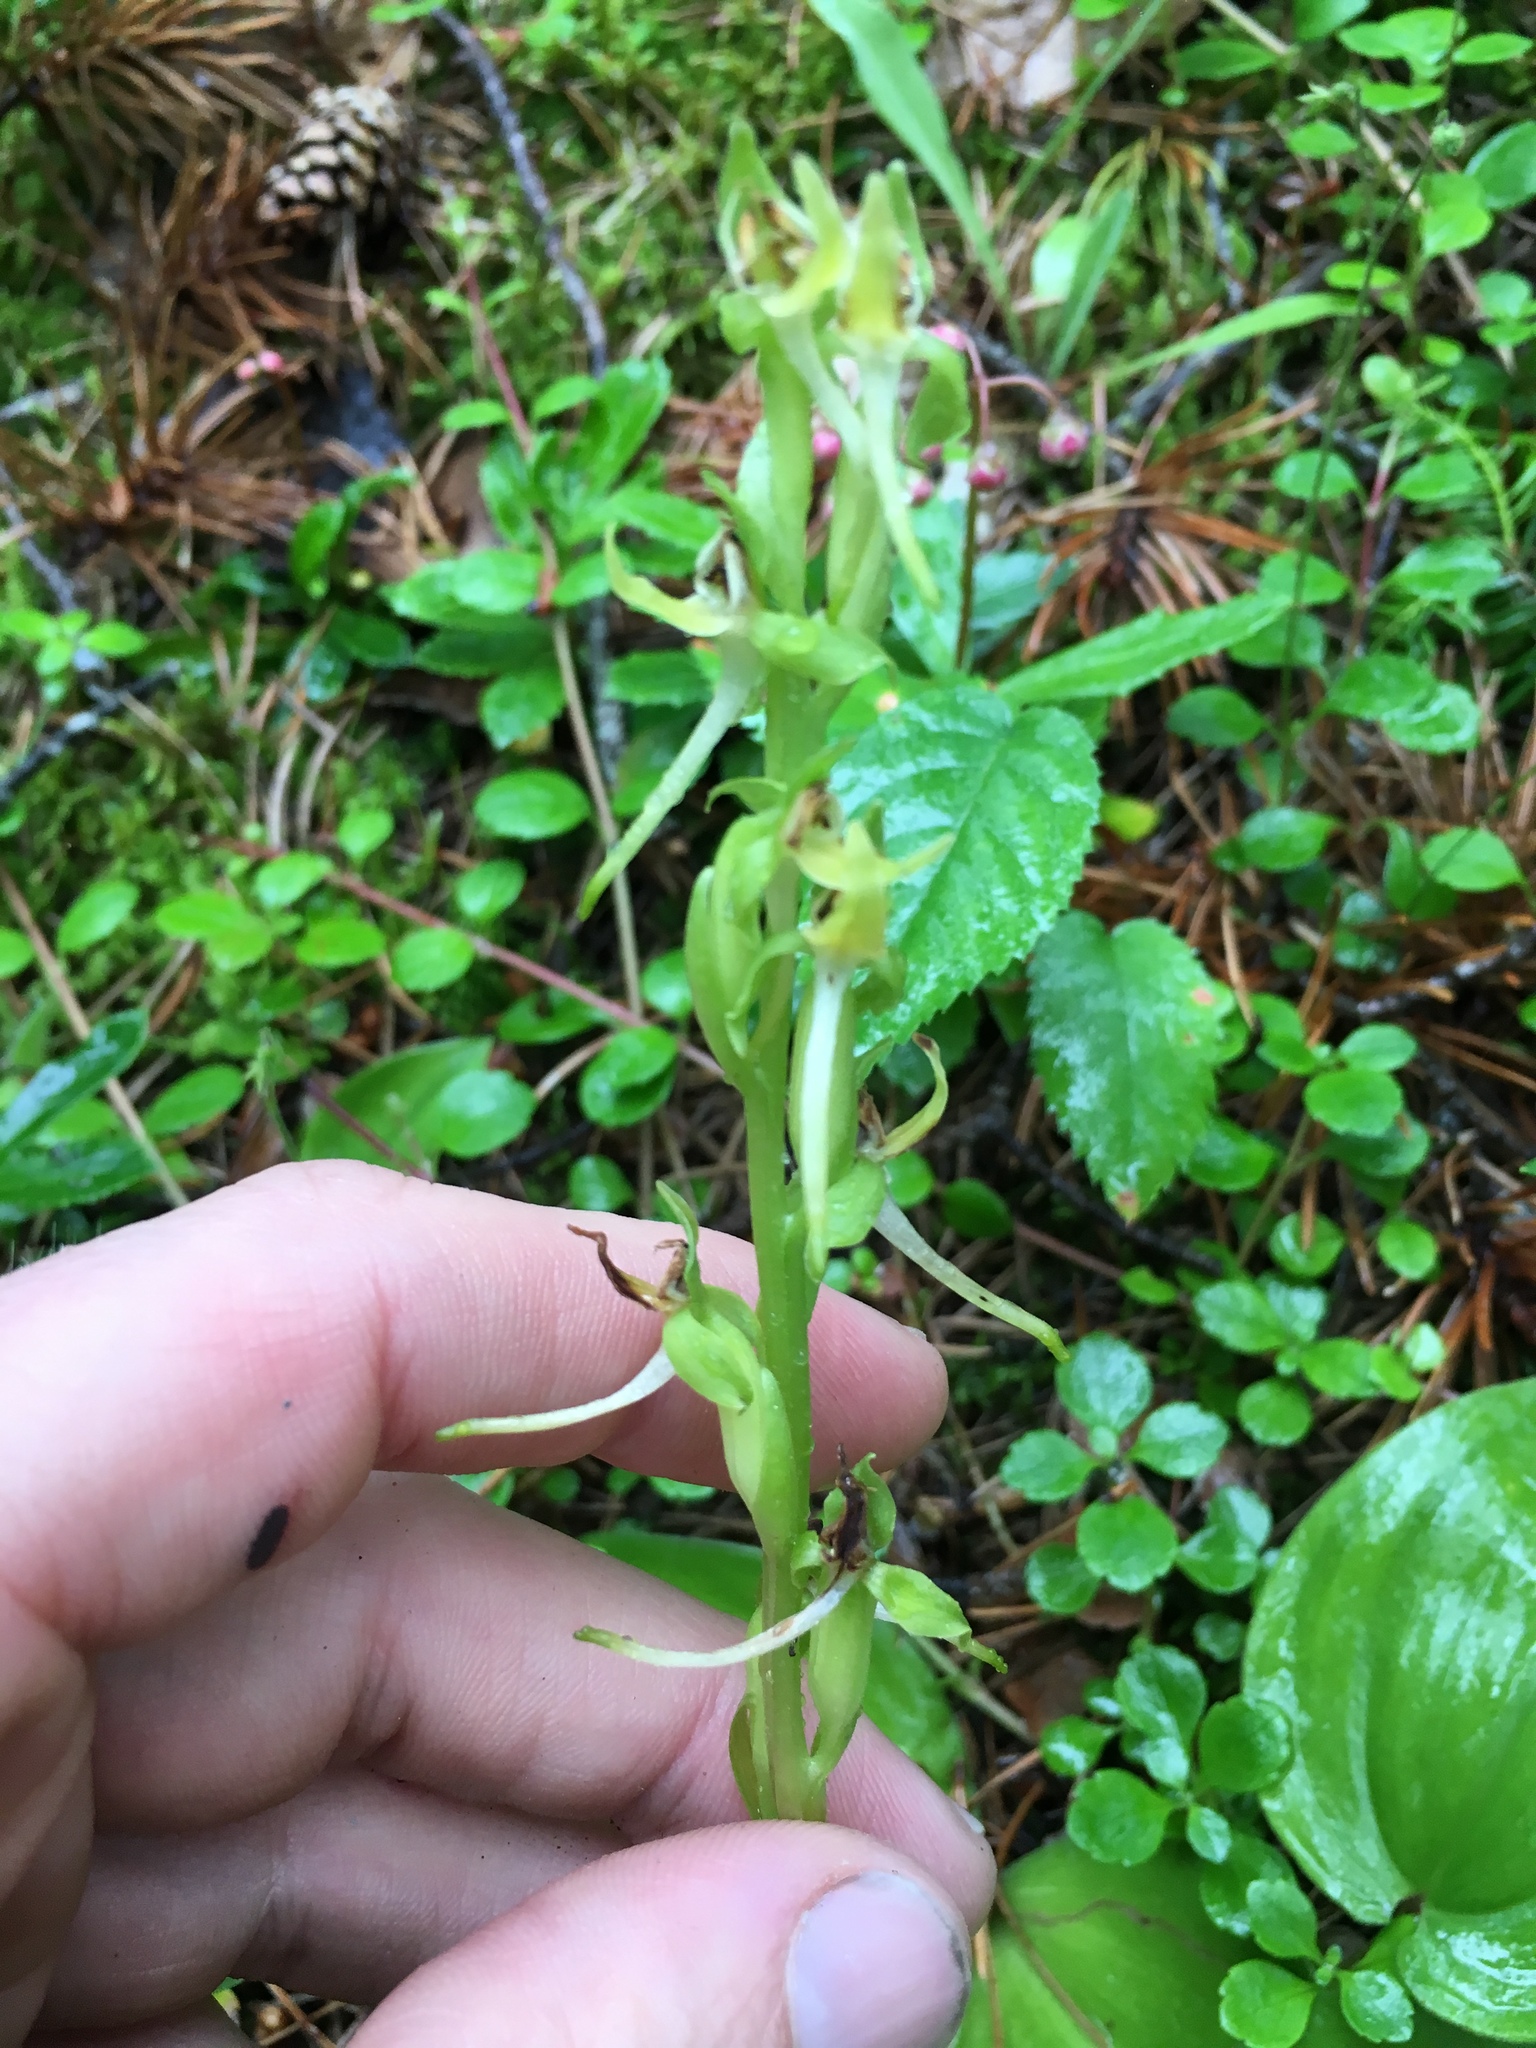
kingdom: Plantae
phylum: Tracheophyta
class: Liliopsida
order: Asparagales
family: Orchidaceae
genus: Platanthera
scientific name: Platanthera hookeri
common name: Hooker's orchid
